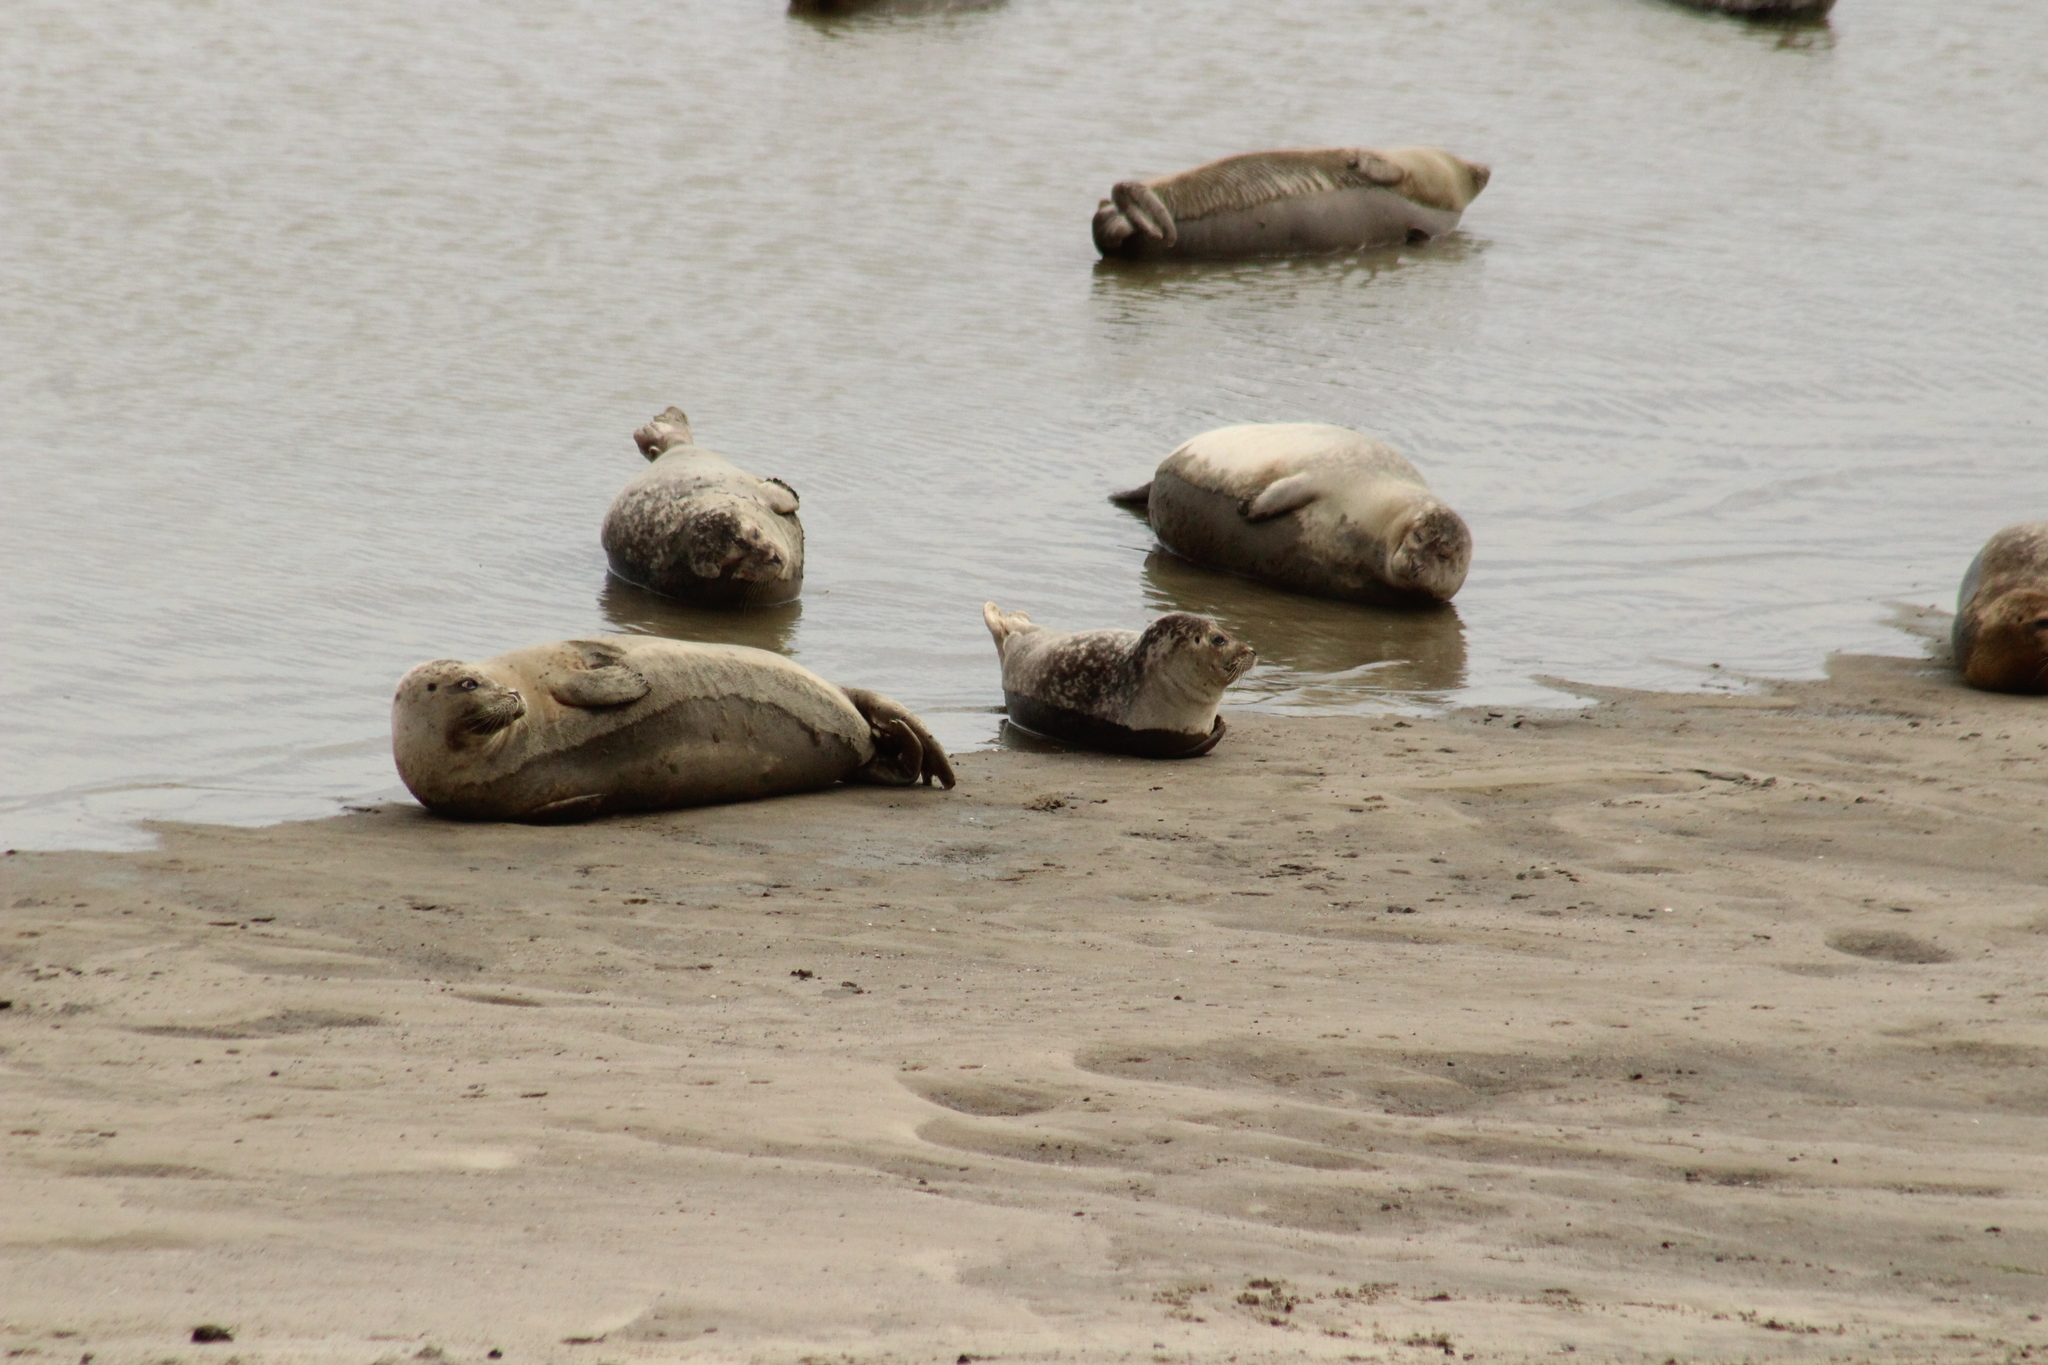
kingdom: Animalia
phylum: Chordata
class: Mammalia
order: Carnivora
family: Phocidae
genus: Phoca
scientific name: Phoca vitulina
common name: Harbor seal
